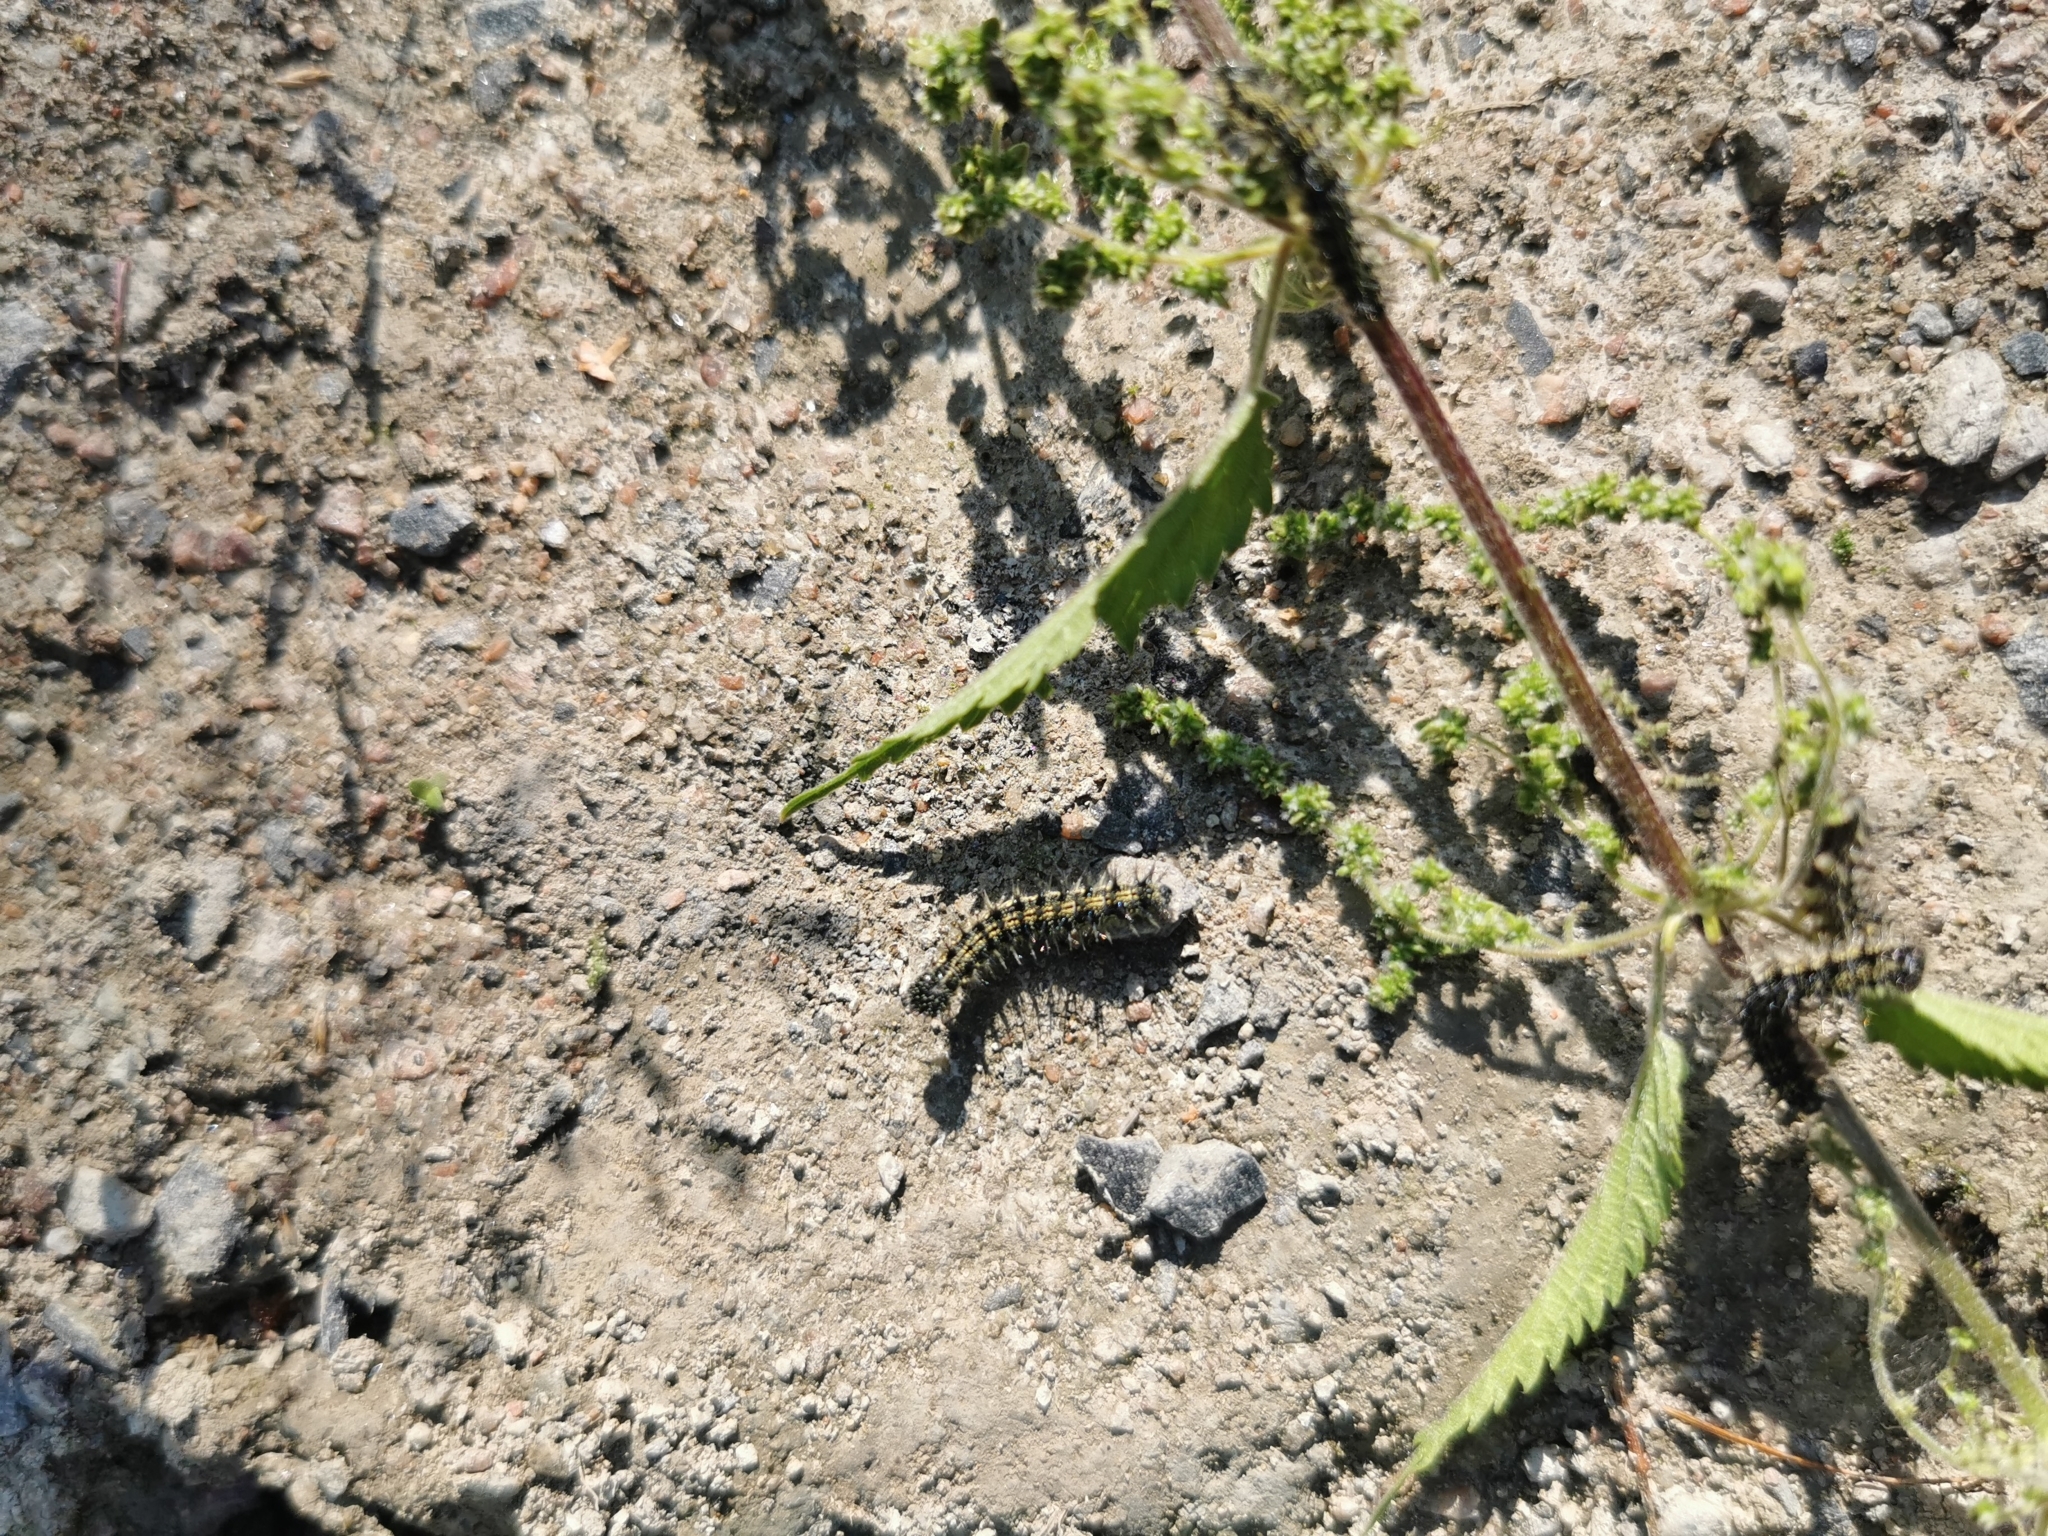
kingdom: Animalia
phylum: Arthropoda
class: Insecta
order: Lepidoptera
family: Nymphalidae
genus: Aglais
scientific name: Aglais urticae
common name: Small tortoiseshell
